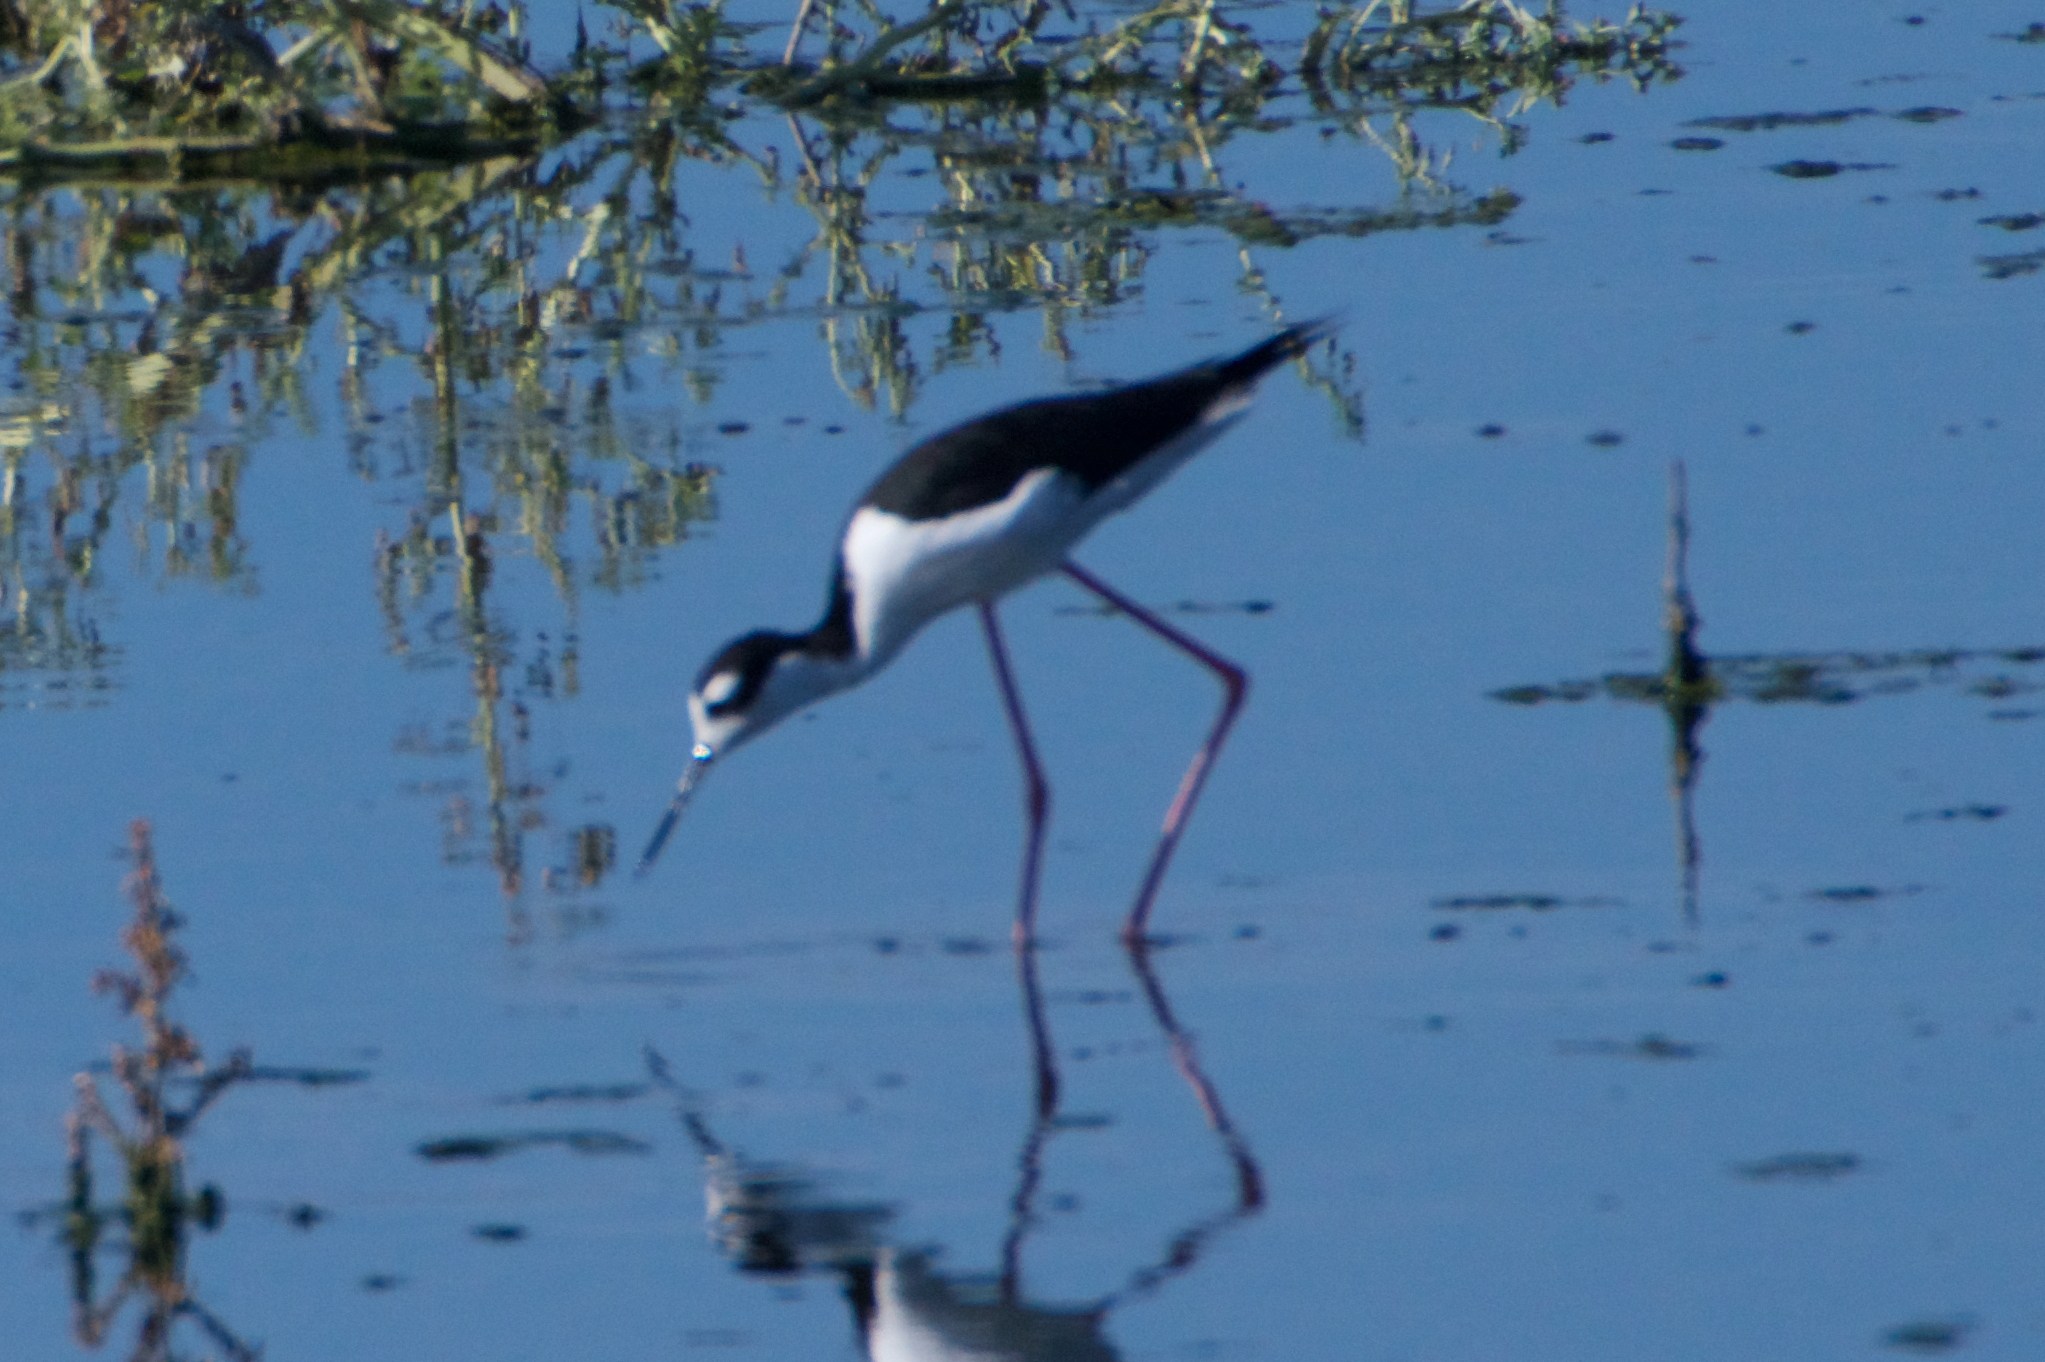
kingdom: Animalia
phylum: Chordata
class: Aves
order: Charadriiformes
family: Recurvirostridae
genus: Himantopus
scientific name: Himantopus mexicanus
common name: Black-necked stilt
